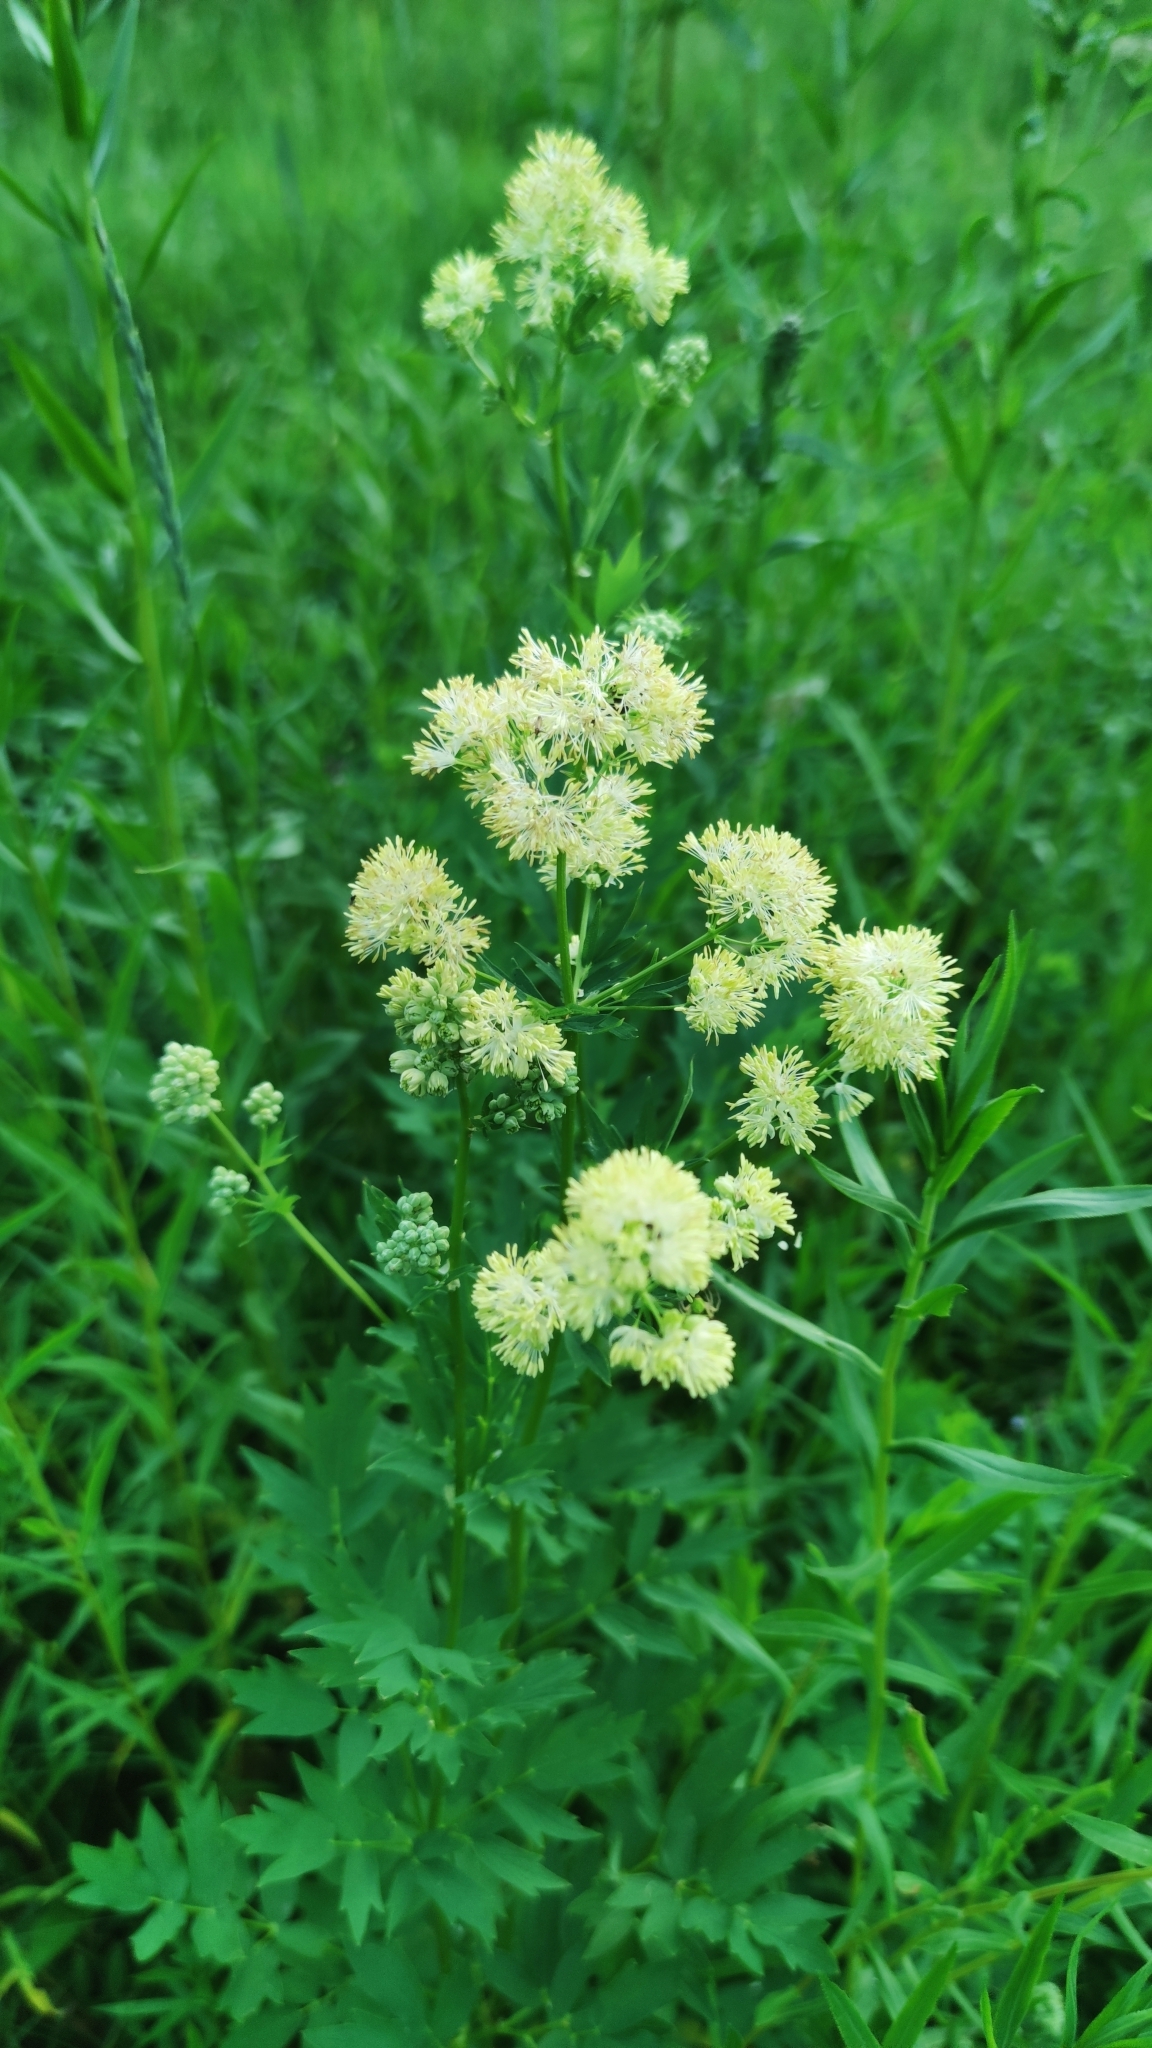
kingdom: Plantae
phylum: Tracheophyta
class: Magnoliopsida
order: Ranunculales
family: Ranunculaceae
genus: Thalictrum
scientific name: Thalictrum flavum
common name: Common meadow-rue
